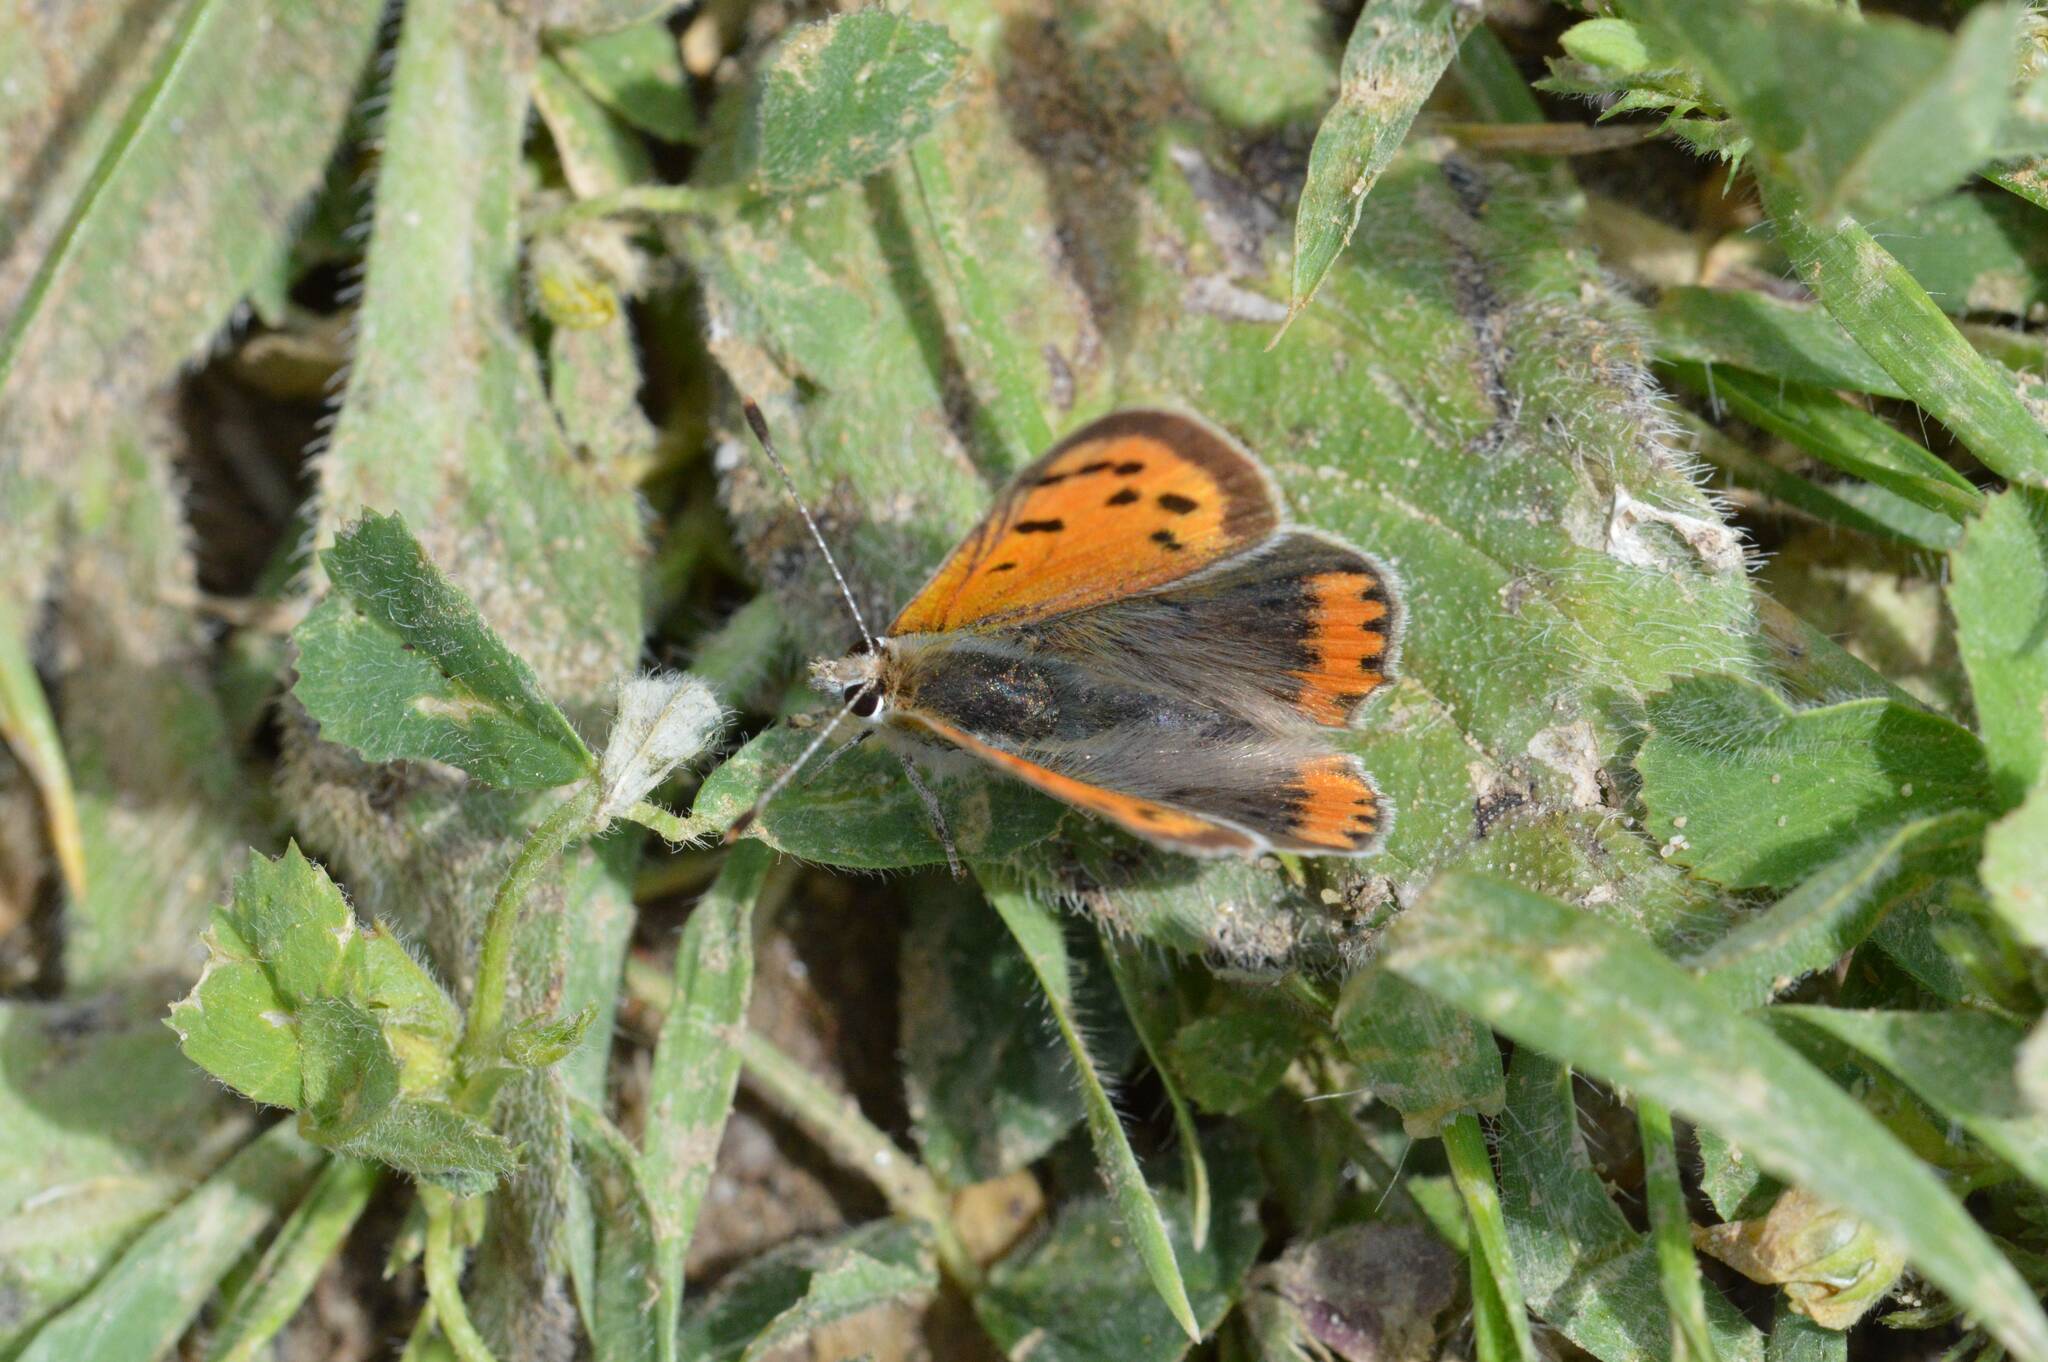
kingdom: Animalia
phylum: Arthropoda
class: Insecta
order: Lepidoptera
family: Lycaenidae
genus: Lycaena
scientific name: Lycaena phlaeas
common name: Small copper
